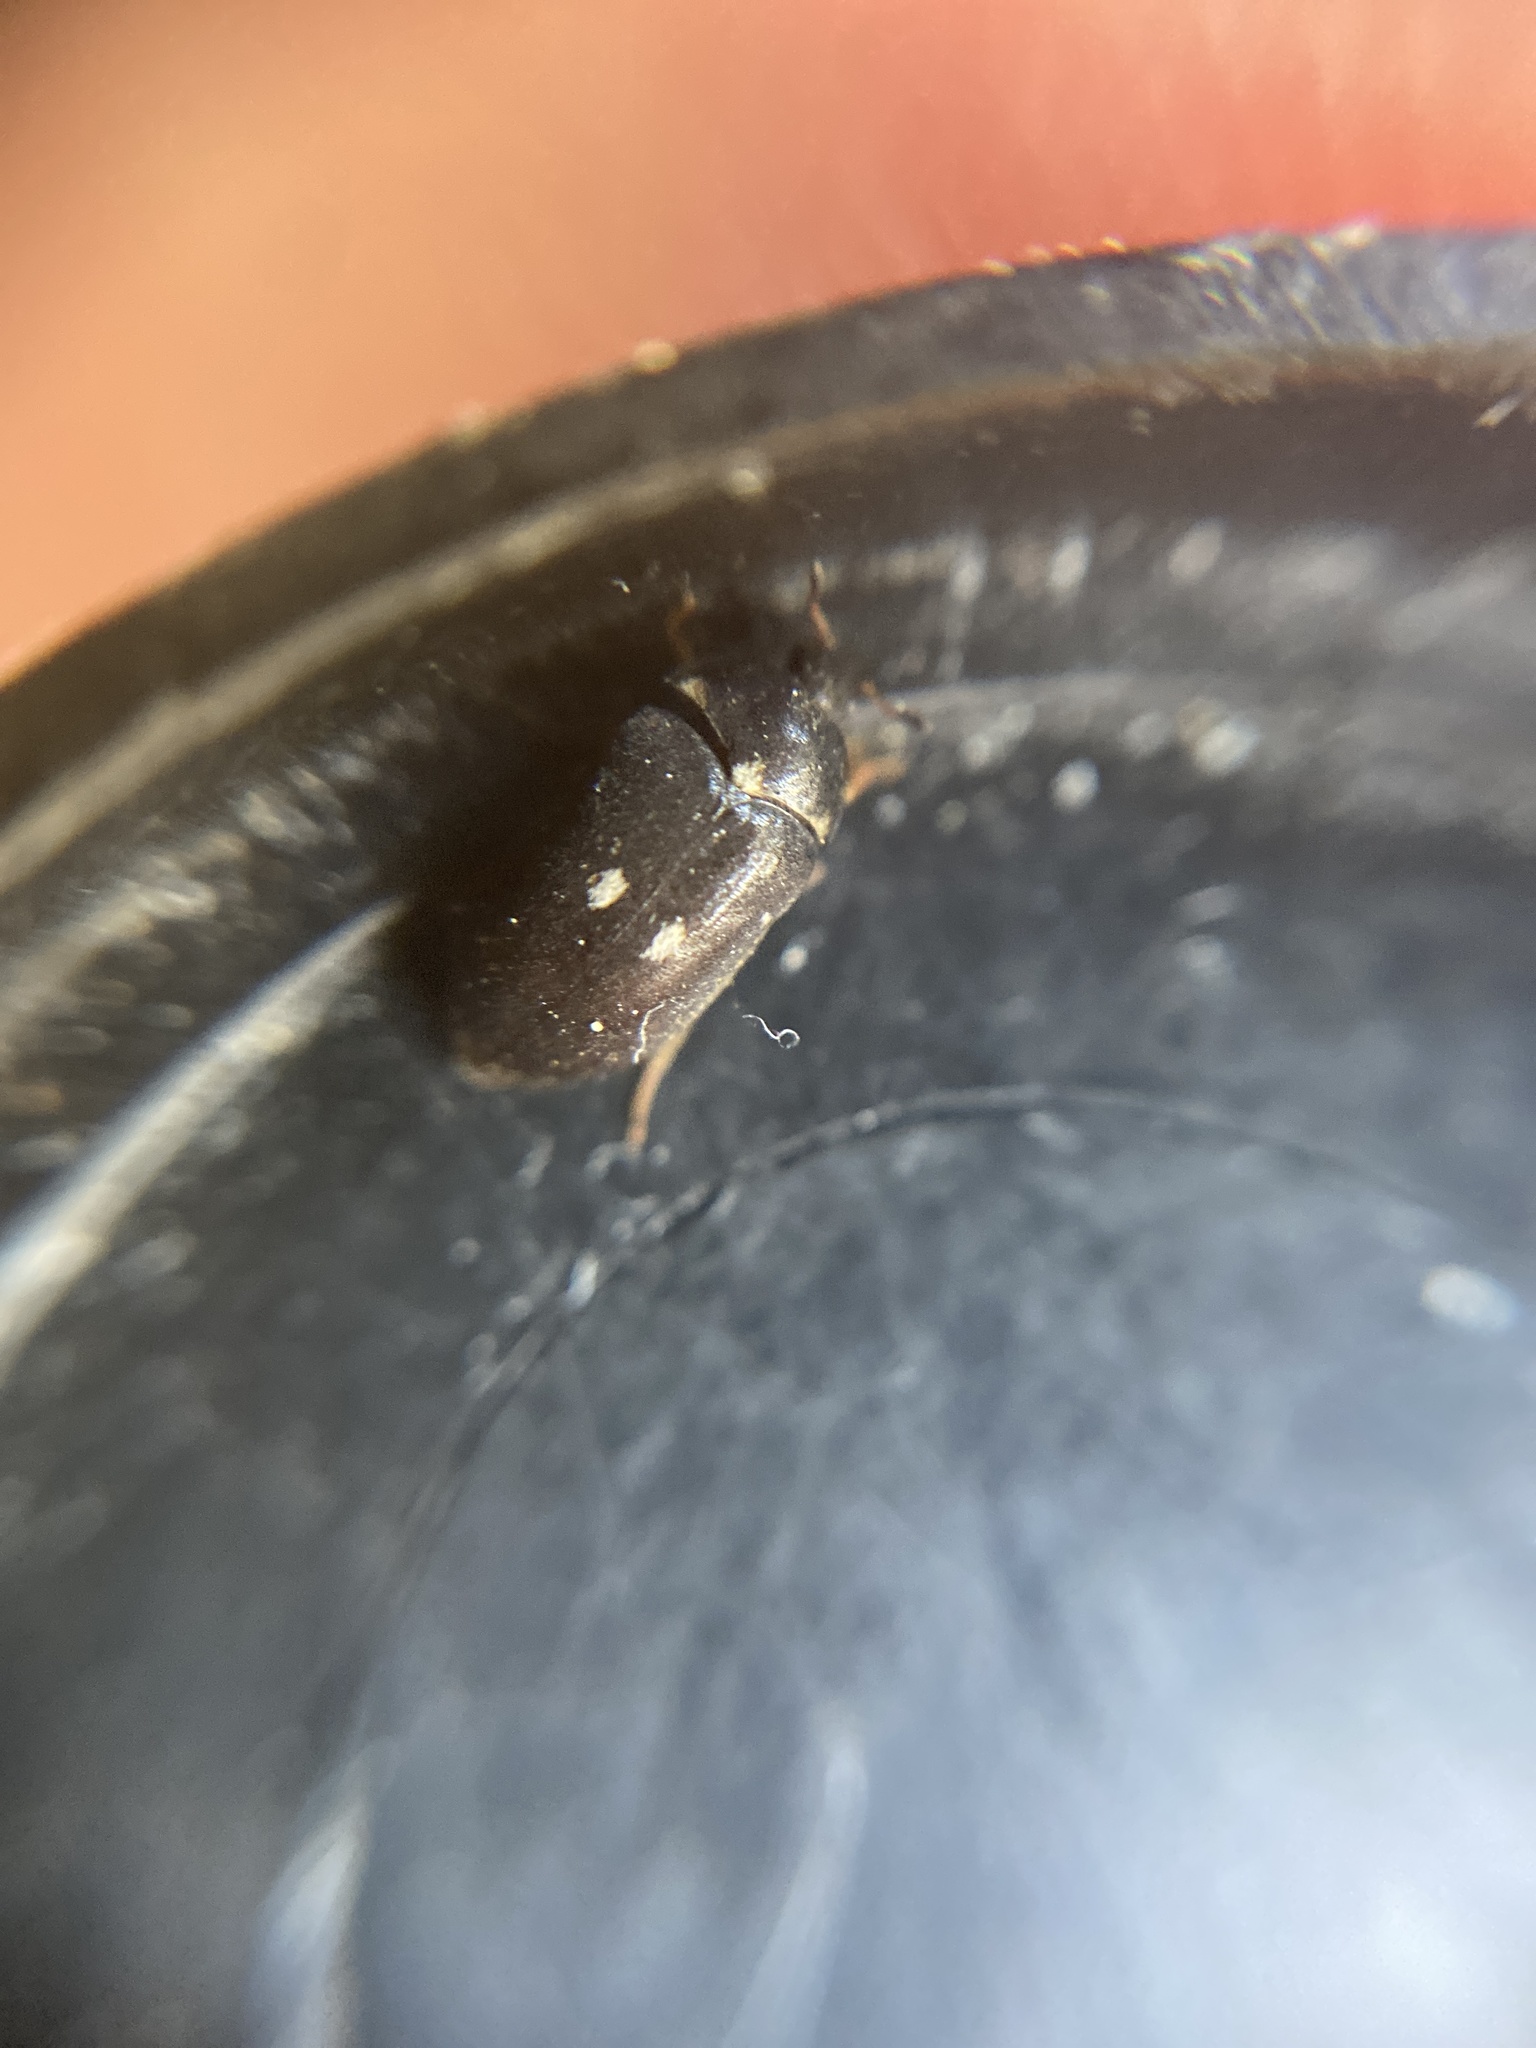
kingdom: Animalia
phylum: Arthropoda
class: Insecta
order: Coleoptera
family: Dermestidae
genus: Attagenus
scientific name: Attagenus pellio
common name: Two-spotted carpet beetle
